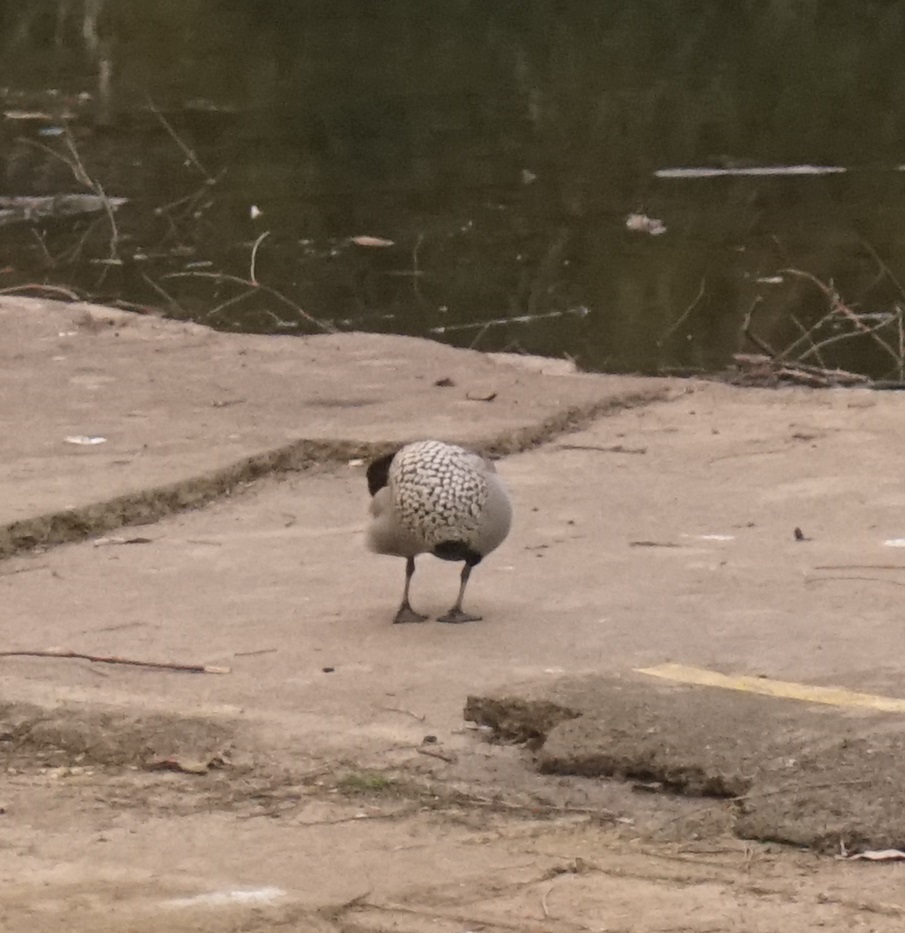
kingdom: Animalia
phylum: Chordata
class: Aves
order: Anseriformes
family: Anatidae
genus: Chenonetta
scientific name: Chenonetta jubata
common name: Maned duck
